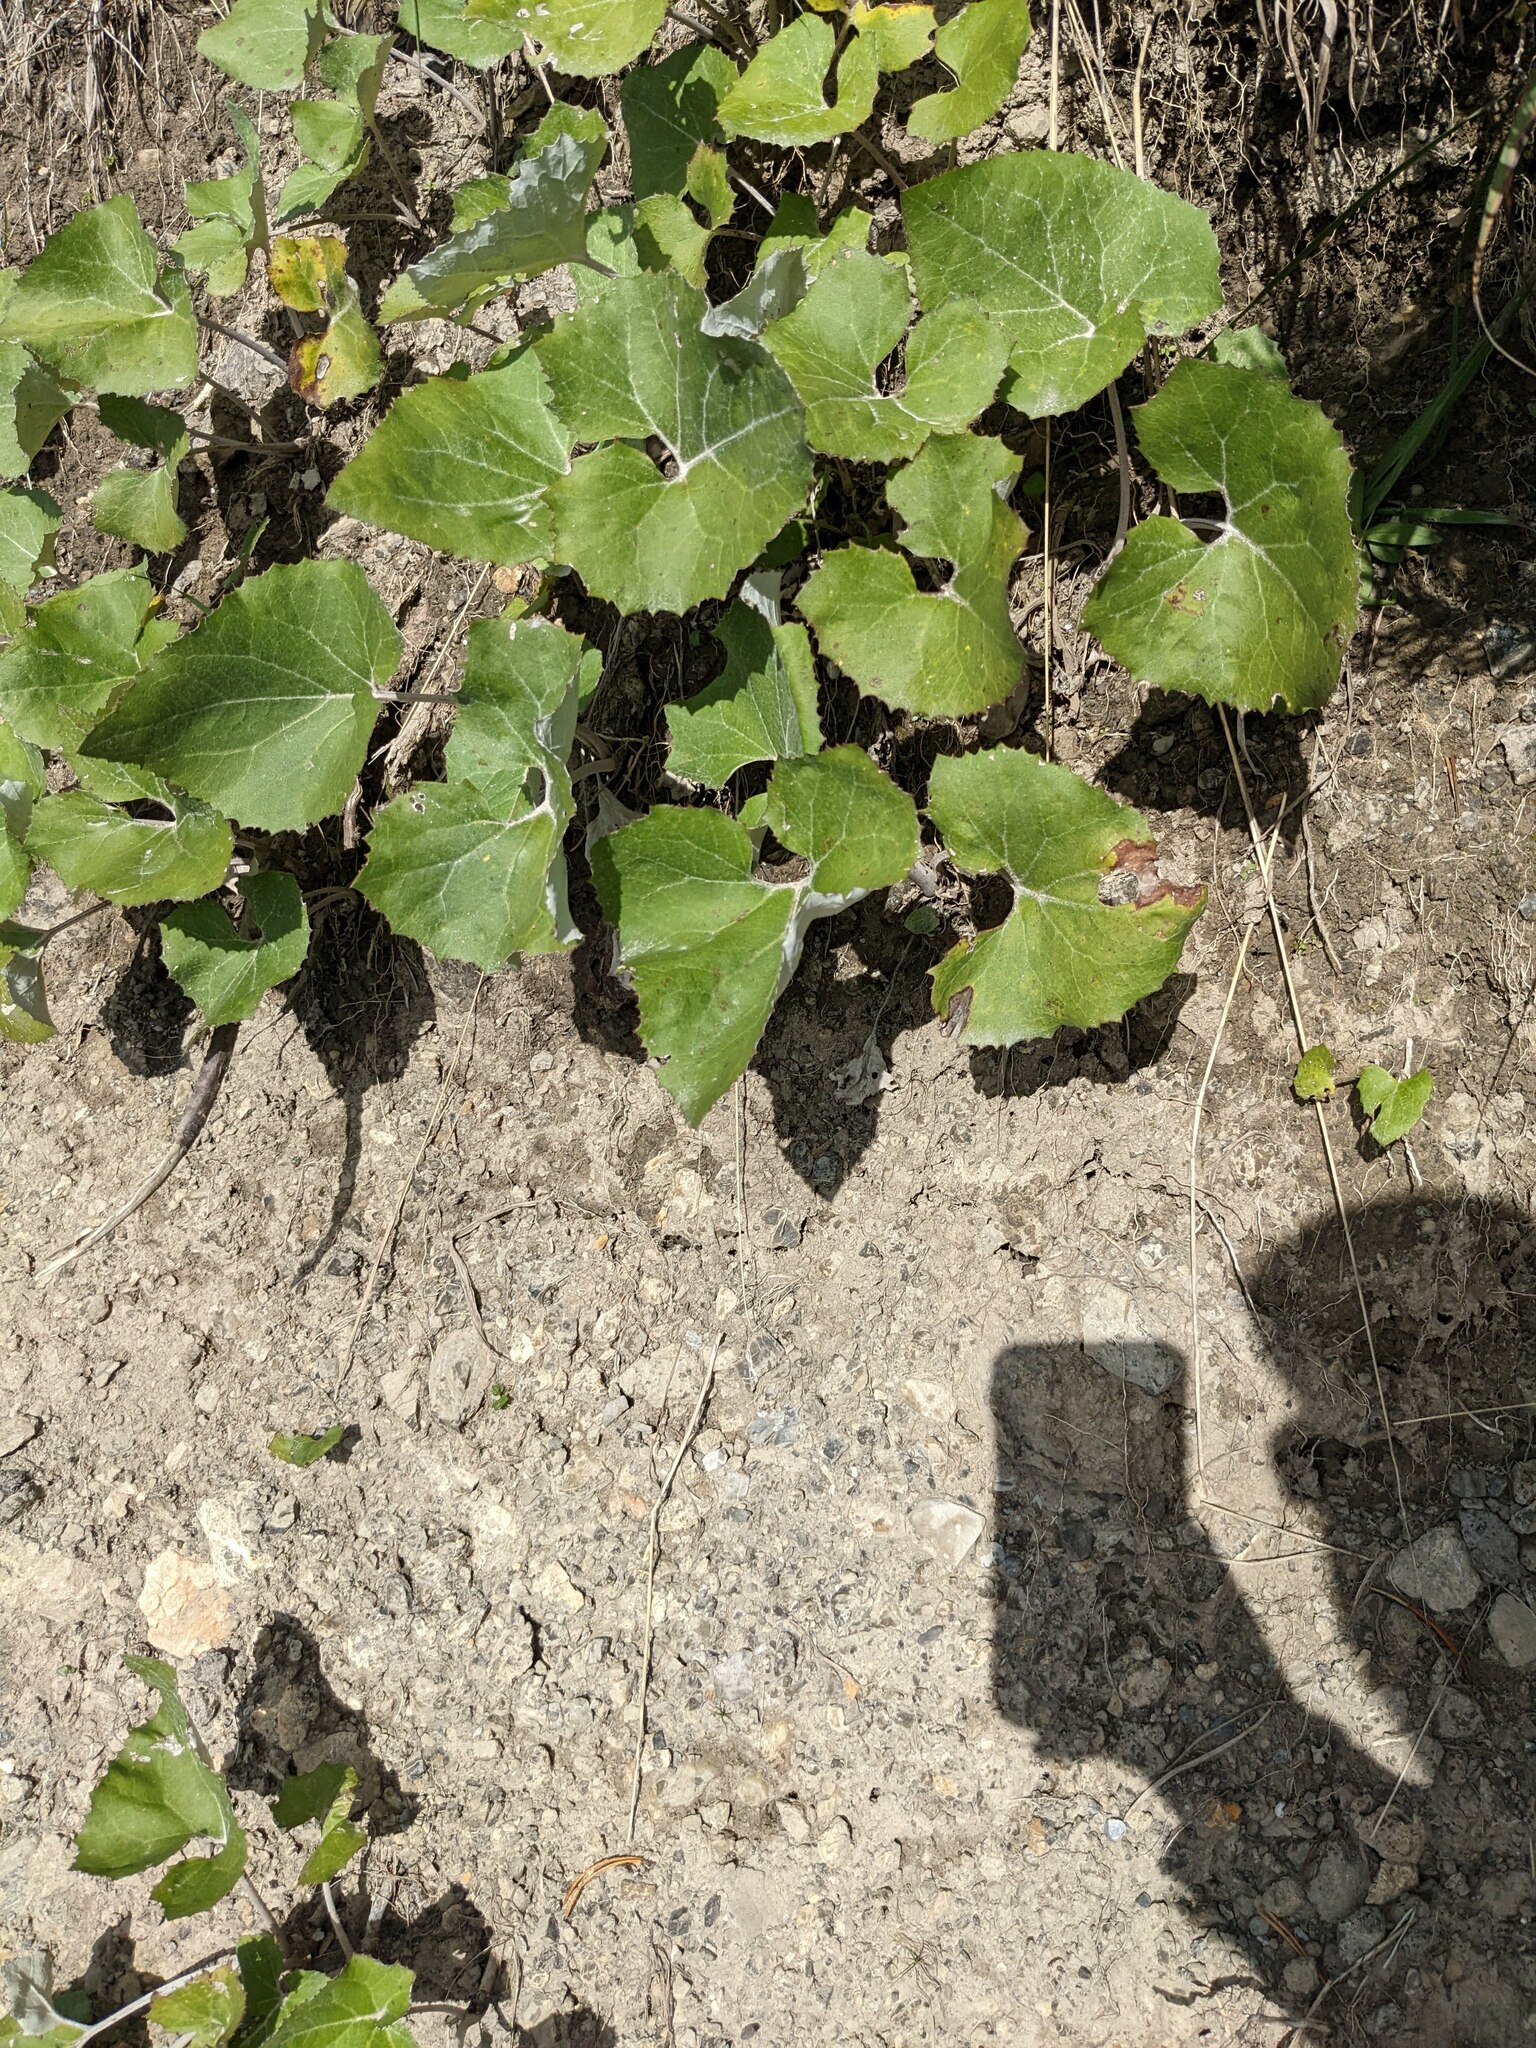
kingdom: Plantae
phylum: Tracheophyta
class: Magnoliopsida
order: Asterales
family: Asteraceae
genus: Petasites
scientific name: Petasites paradoxus
